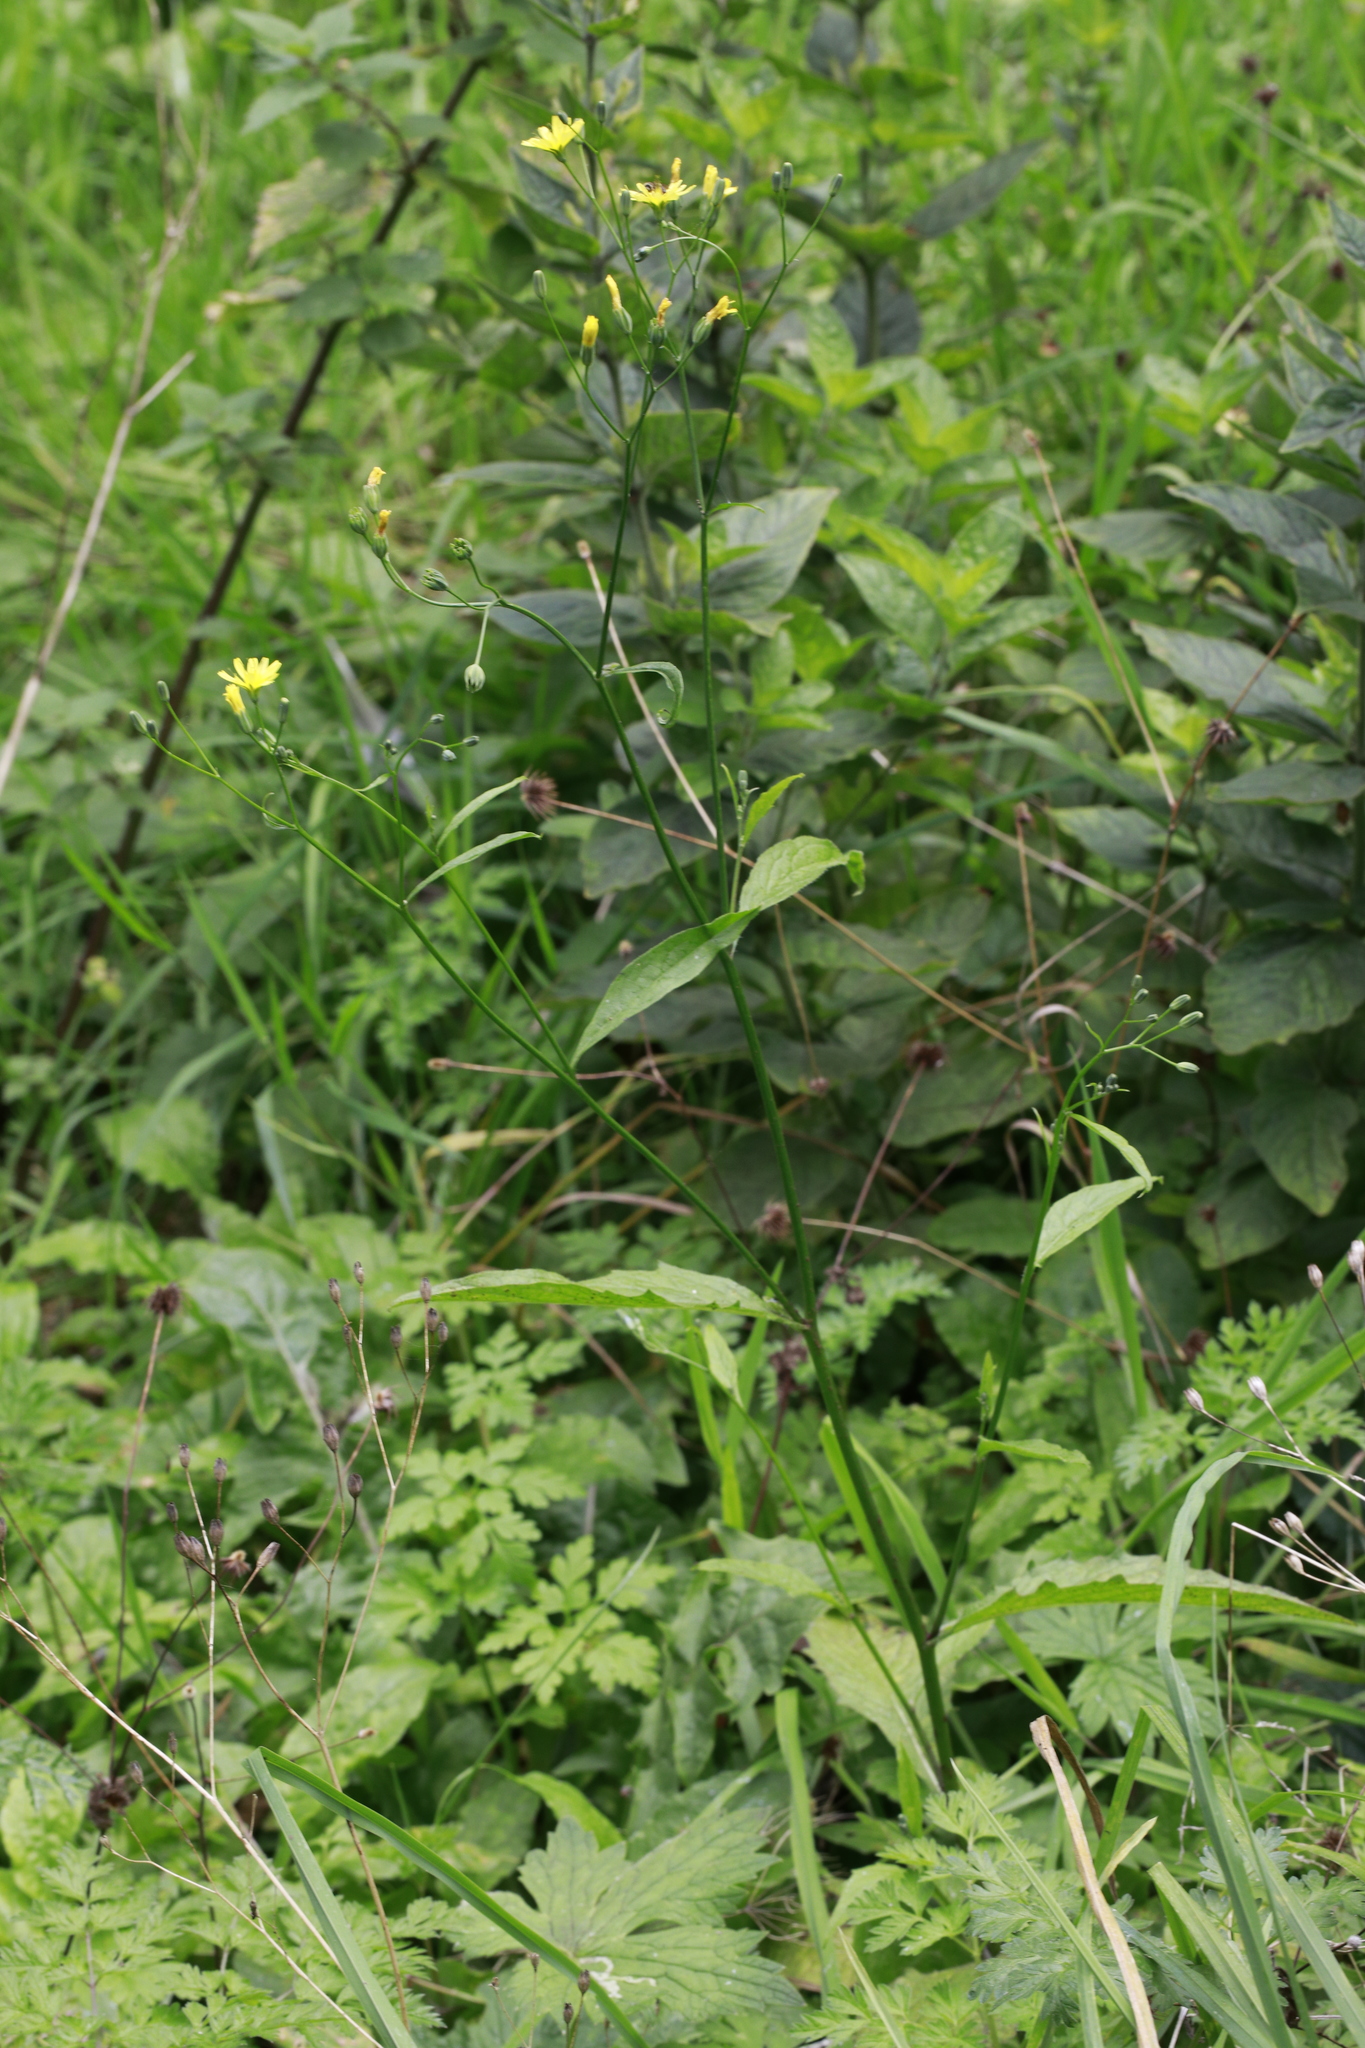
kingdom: Plantae
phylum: Tracheophyta
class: Magnoliopsida
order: Asterales
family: Asteraceae
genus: Lapsana
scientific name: Lapsana communis
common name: Nipplewort
